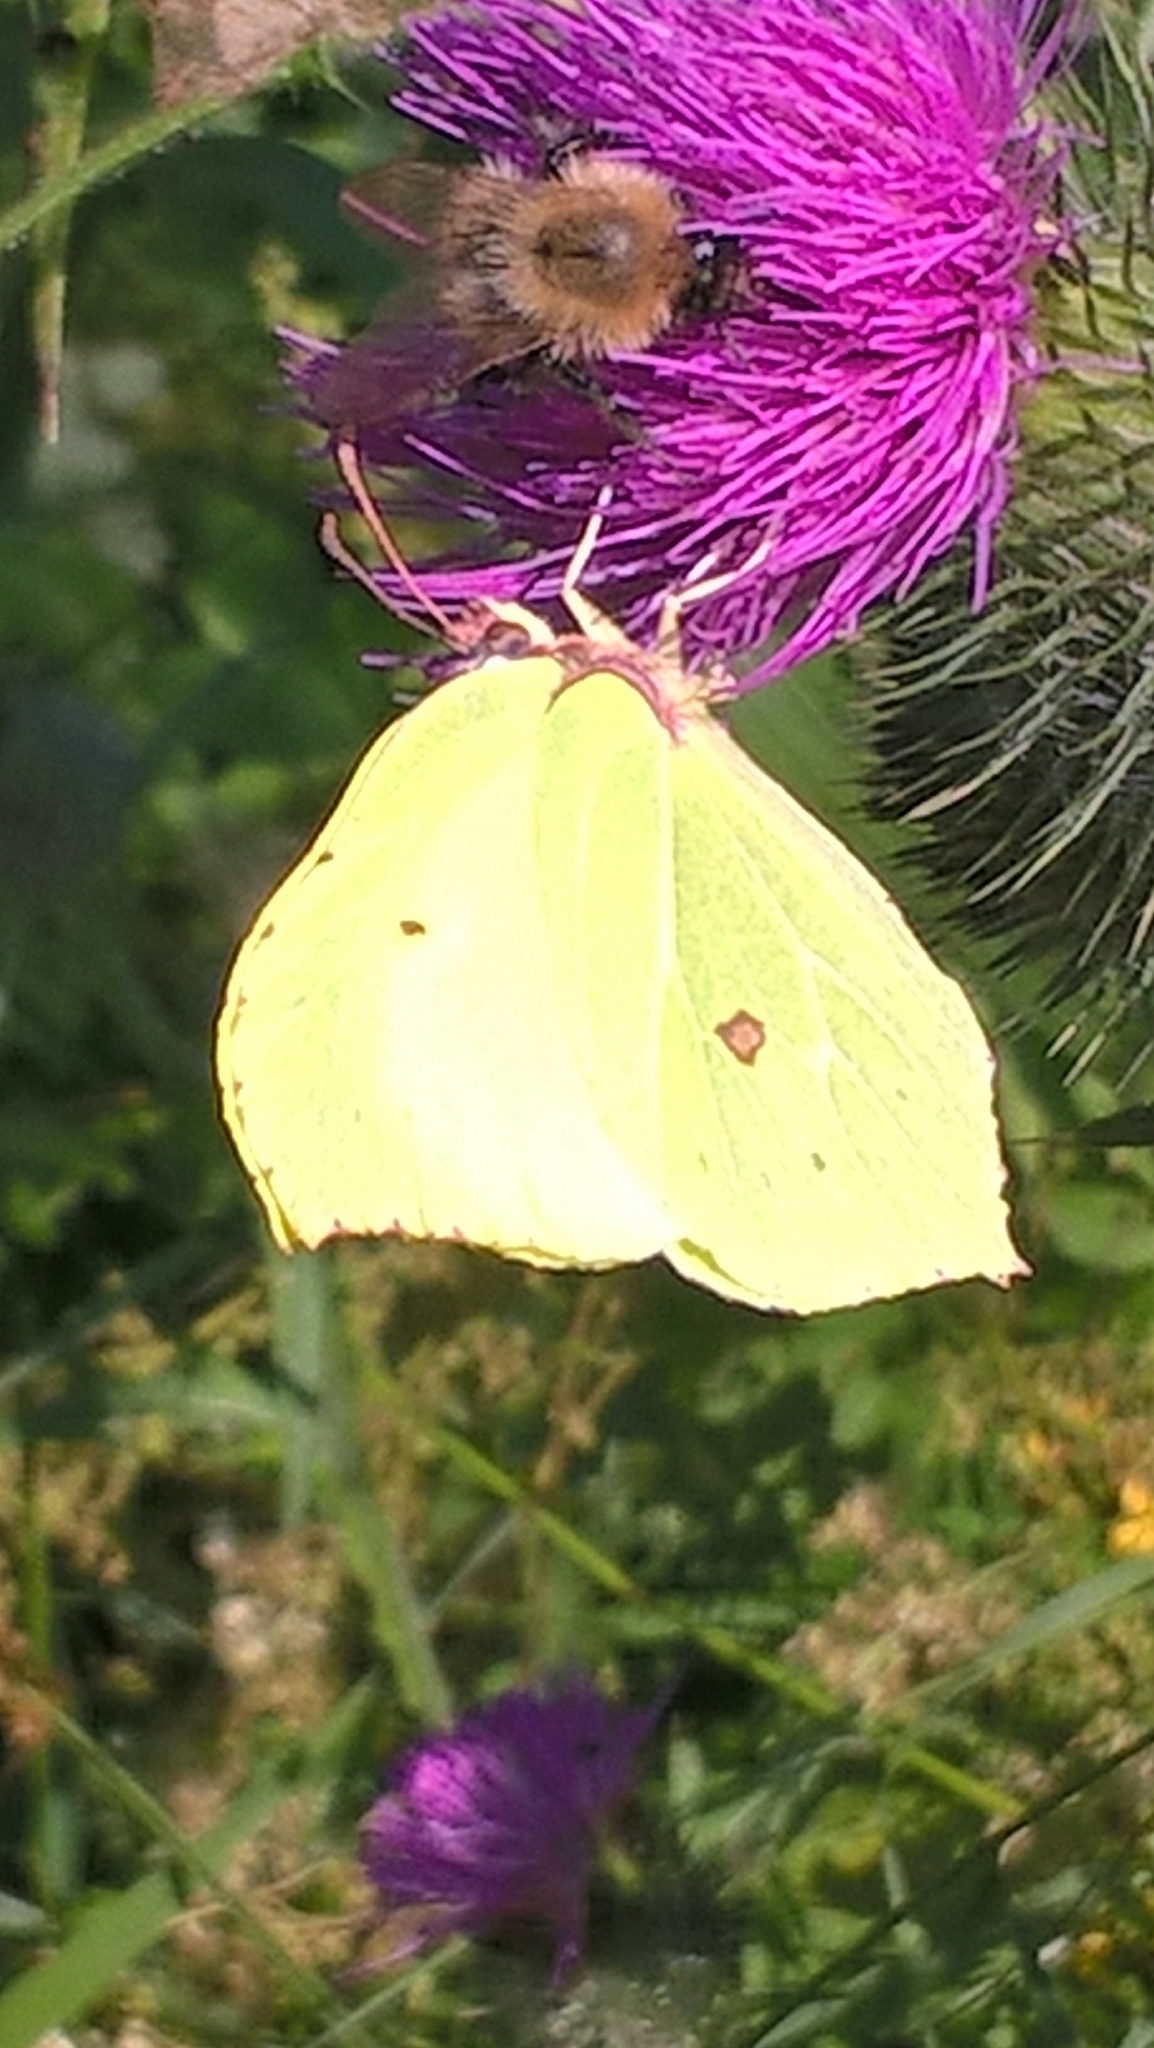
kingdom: Animalia
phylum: Arthropoda
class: Insecta
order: Lepidoptera
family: Pieridae
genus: Gonepteryx
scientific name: Gonepteryx rhamni
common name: Brimstone
